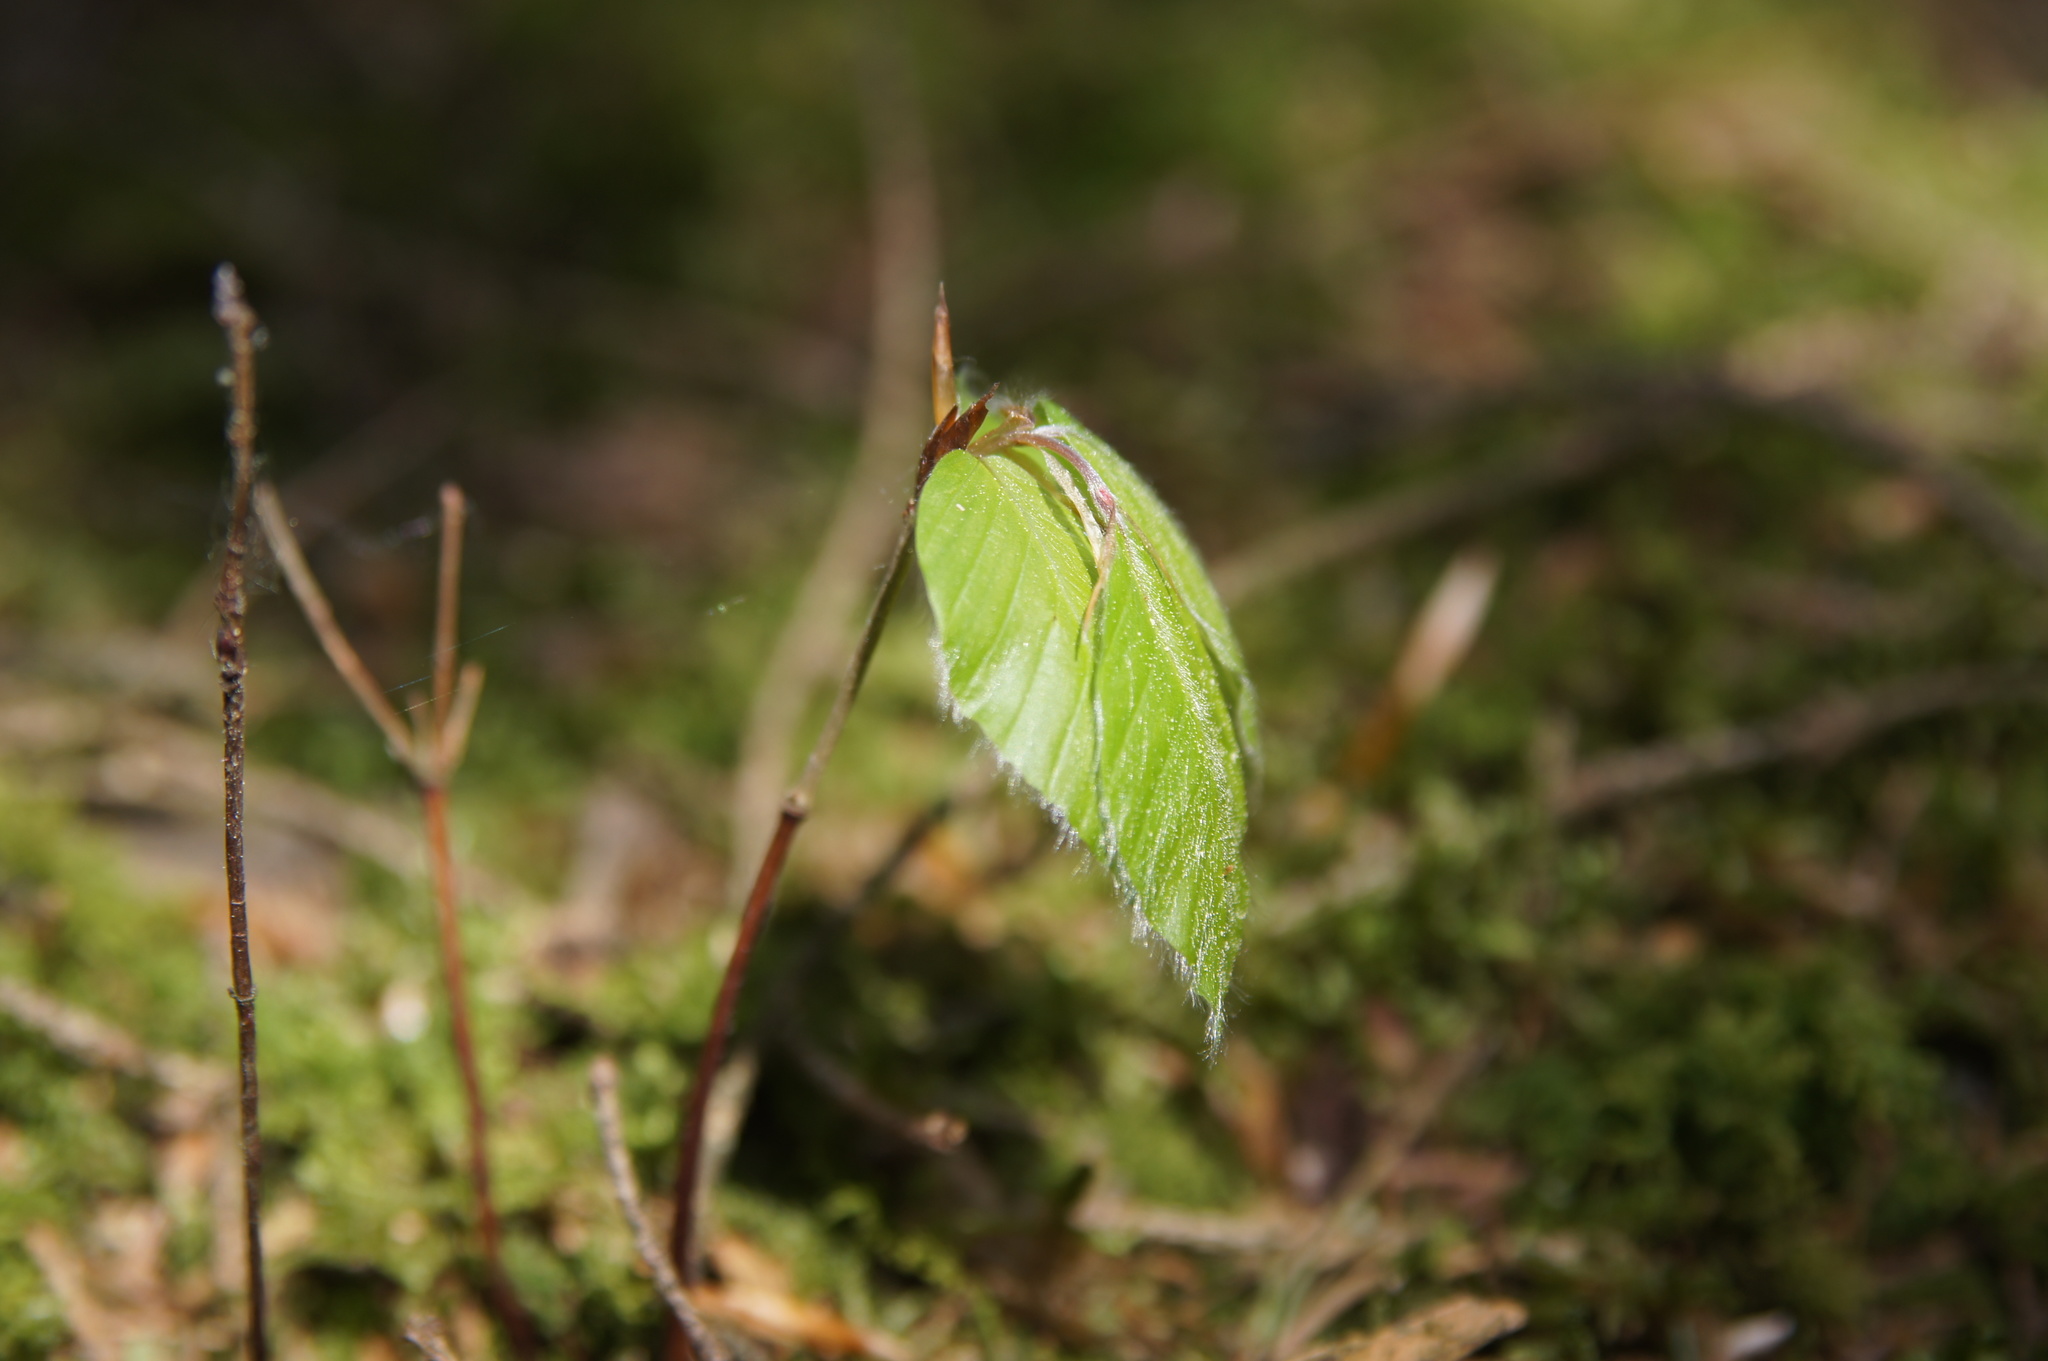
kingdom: Plantae
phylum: Tracheophyta
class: Magnoliopsida
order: Fagales
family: Fagaceae
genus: Fagus
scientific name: Fagus sylvatica
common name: Beech
